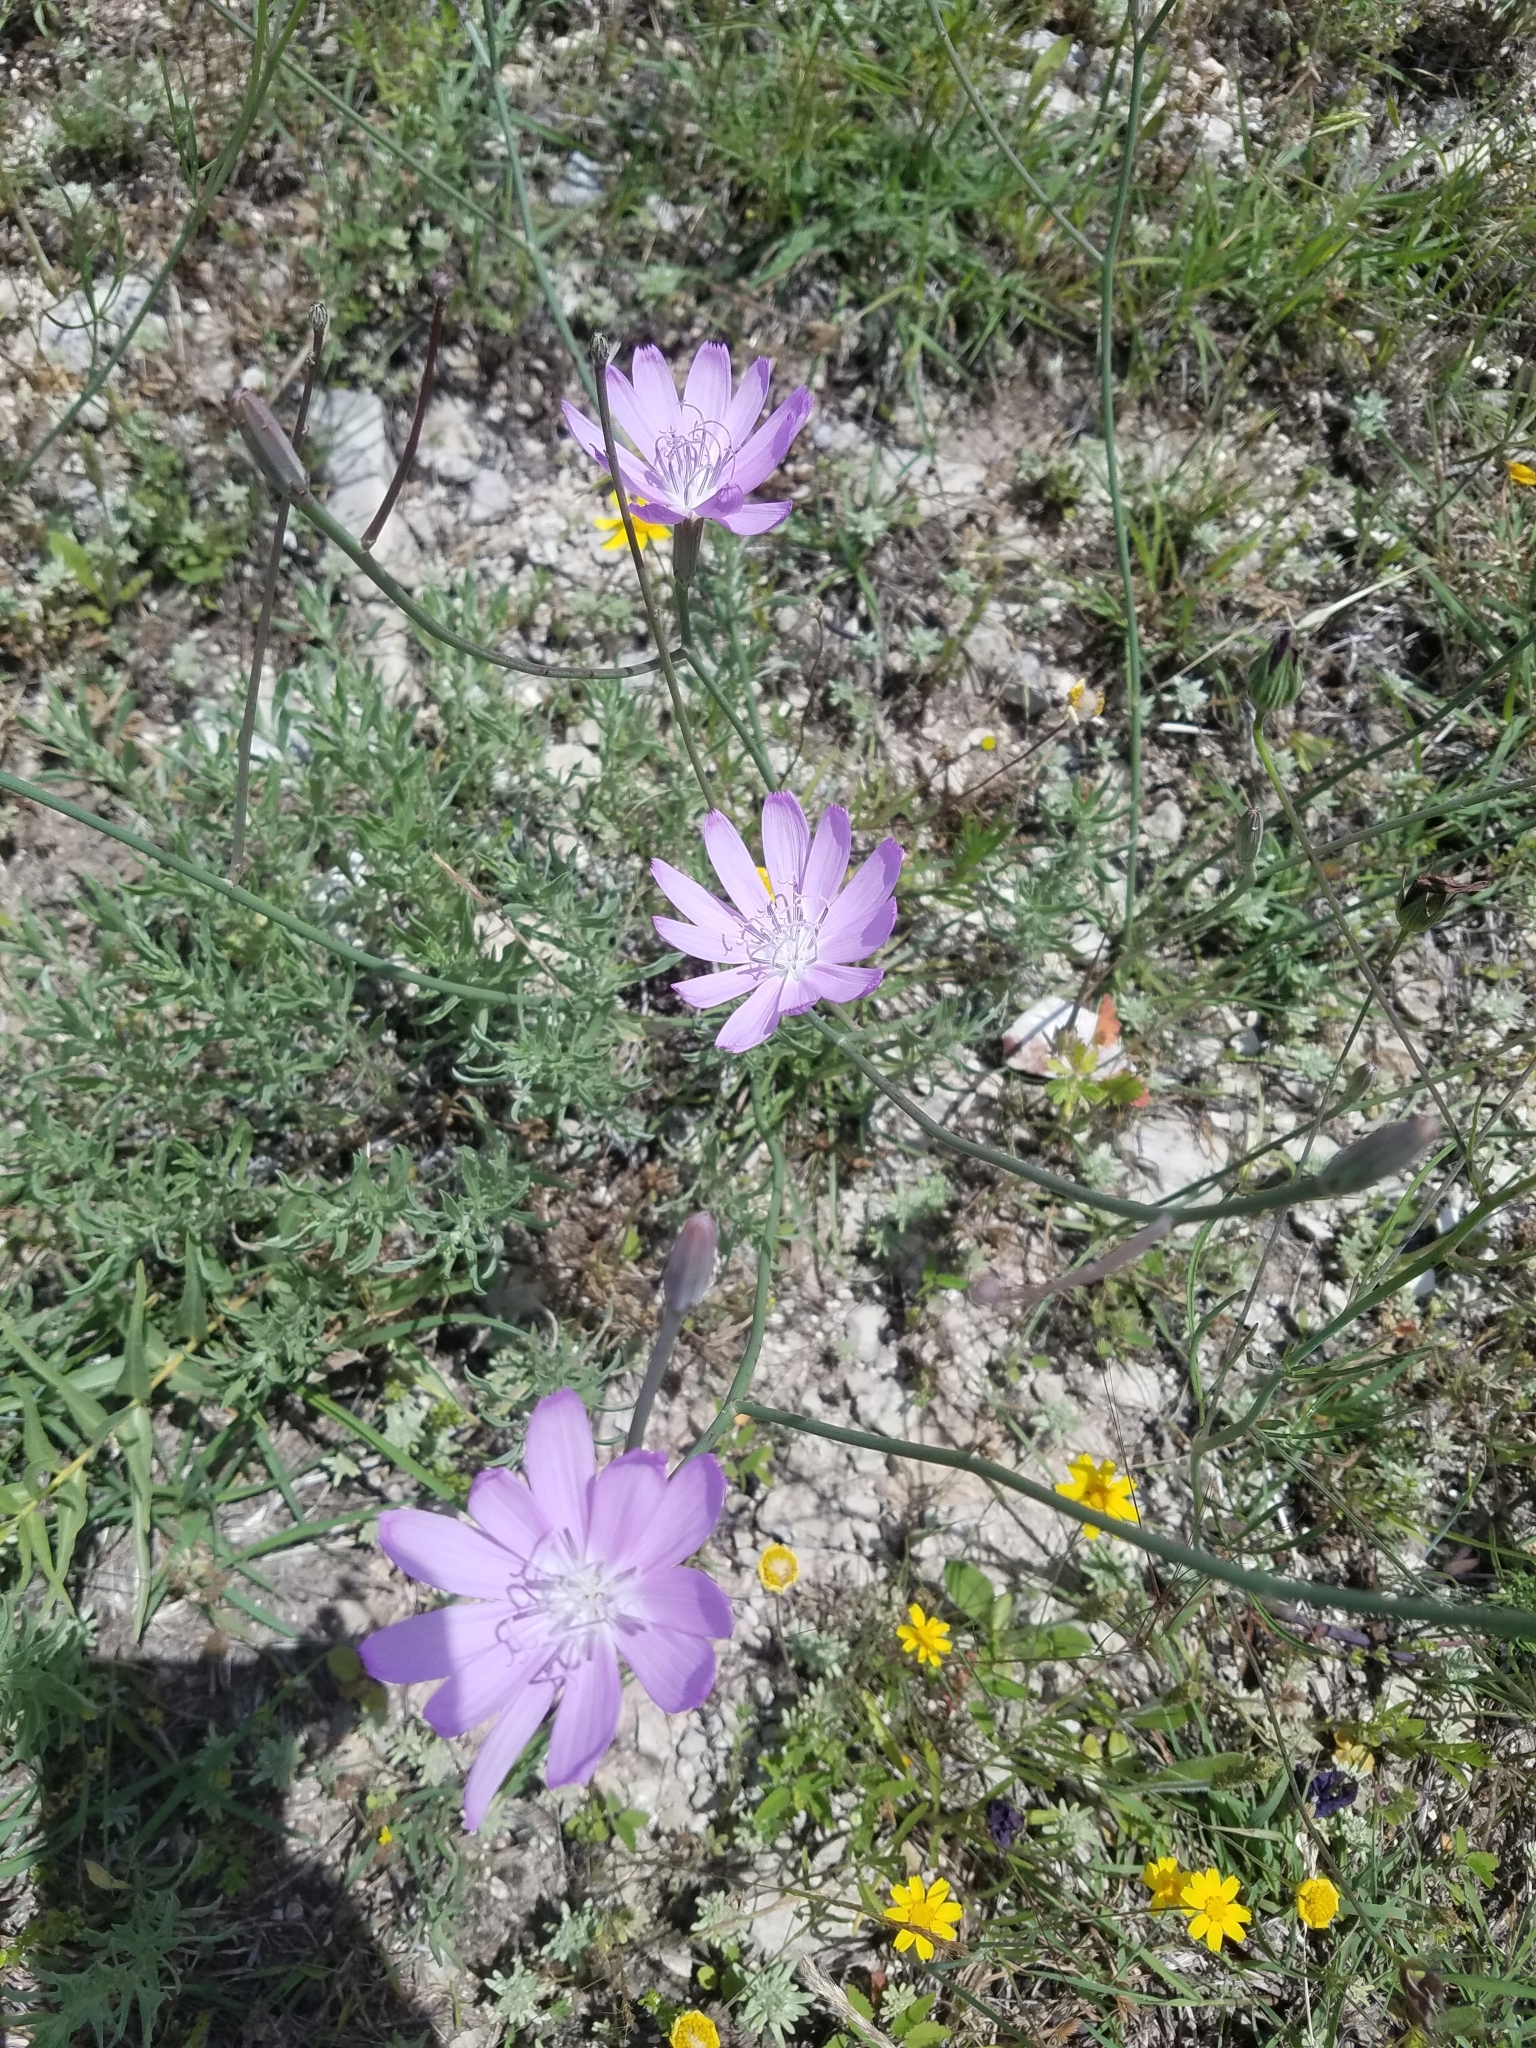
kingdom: Plantae
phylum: Tracheophyta
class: Magnoliopsida
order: Asterales
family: Asteraceae
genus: Lygodesmia
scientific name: Lygodesmia texana
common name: Texas skeleton-plant
